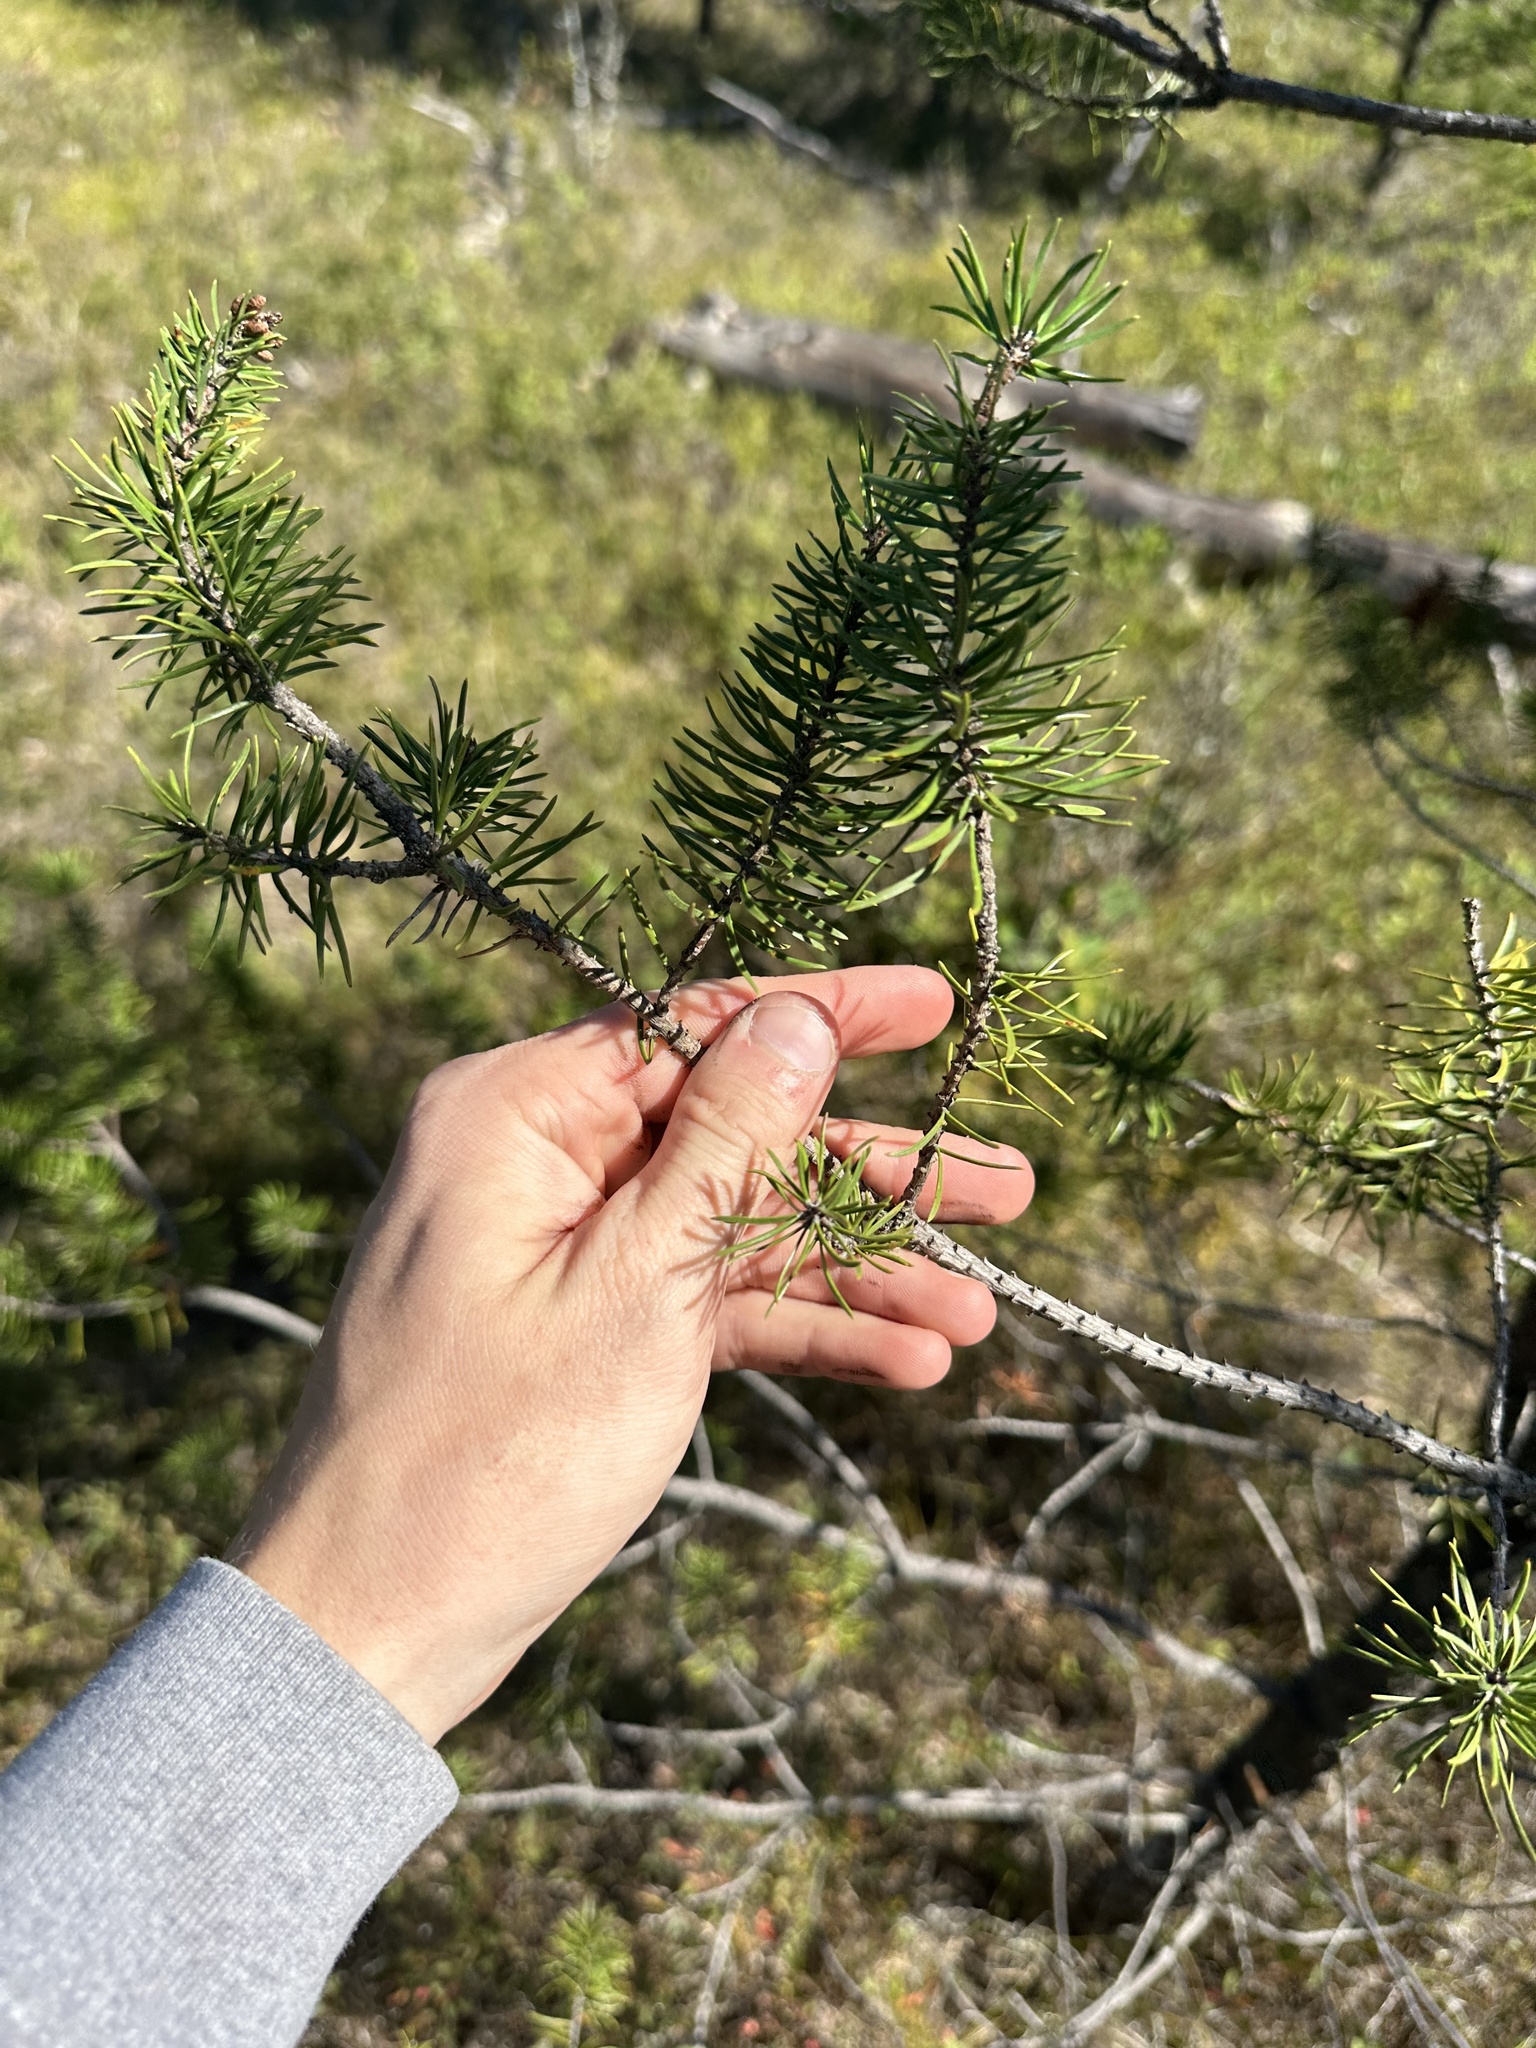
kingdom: Plantae
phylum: Tracheophyta
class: Pinopsida
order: Pinales
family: Pinaceae
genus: Pinus
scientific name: Pinus banksiana
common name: Jack pine
